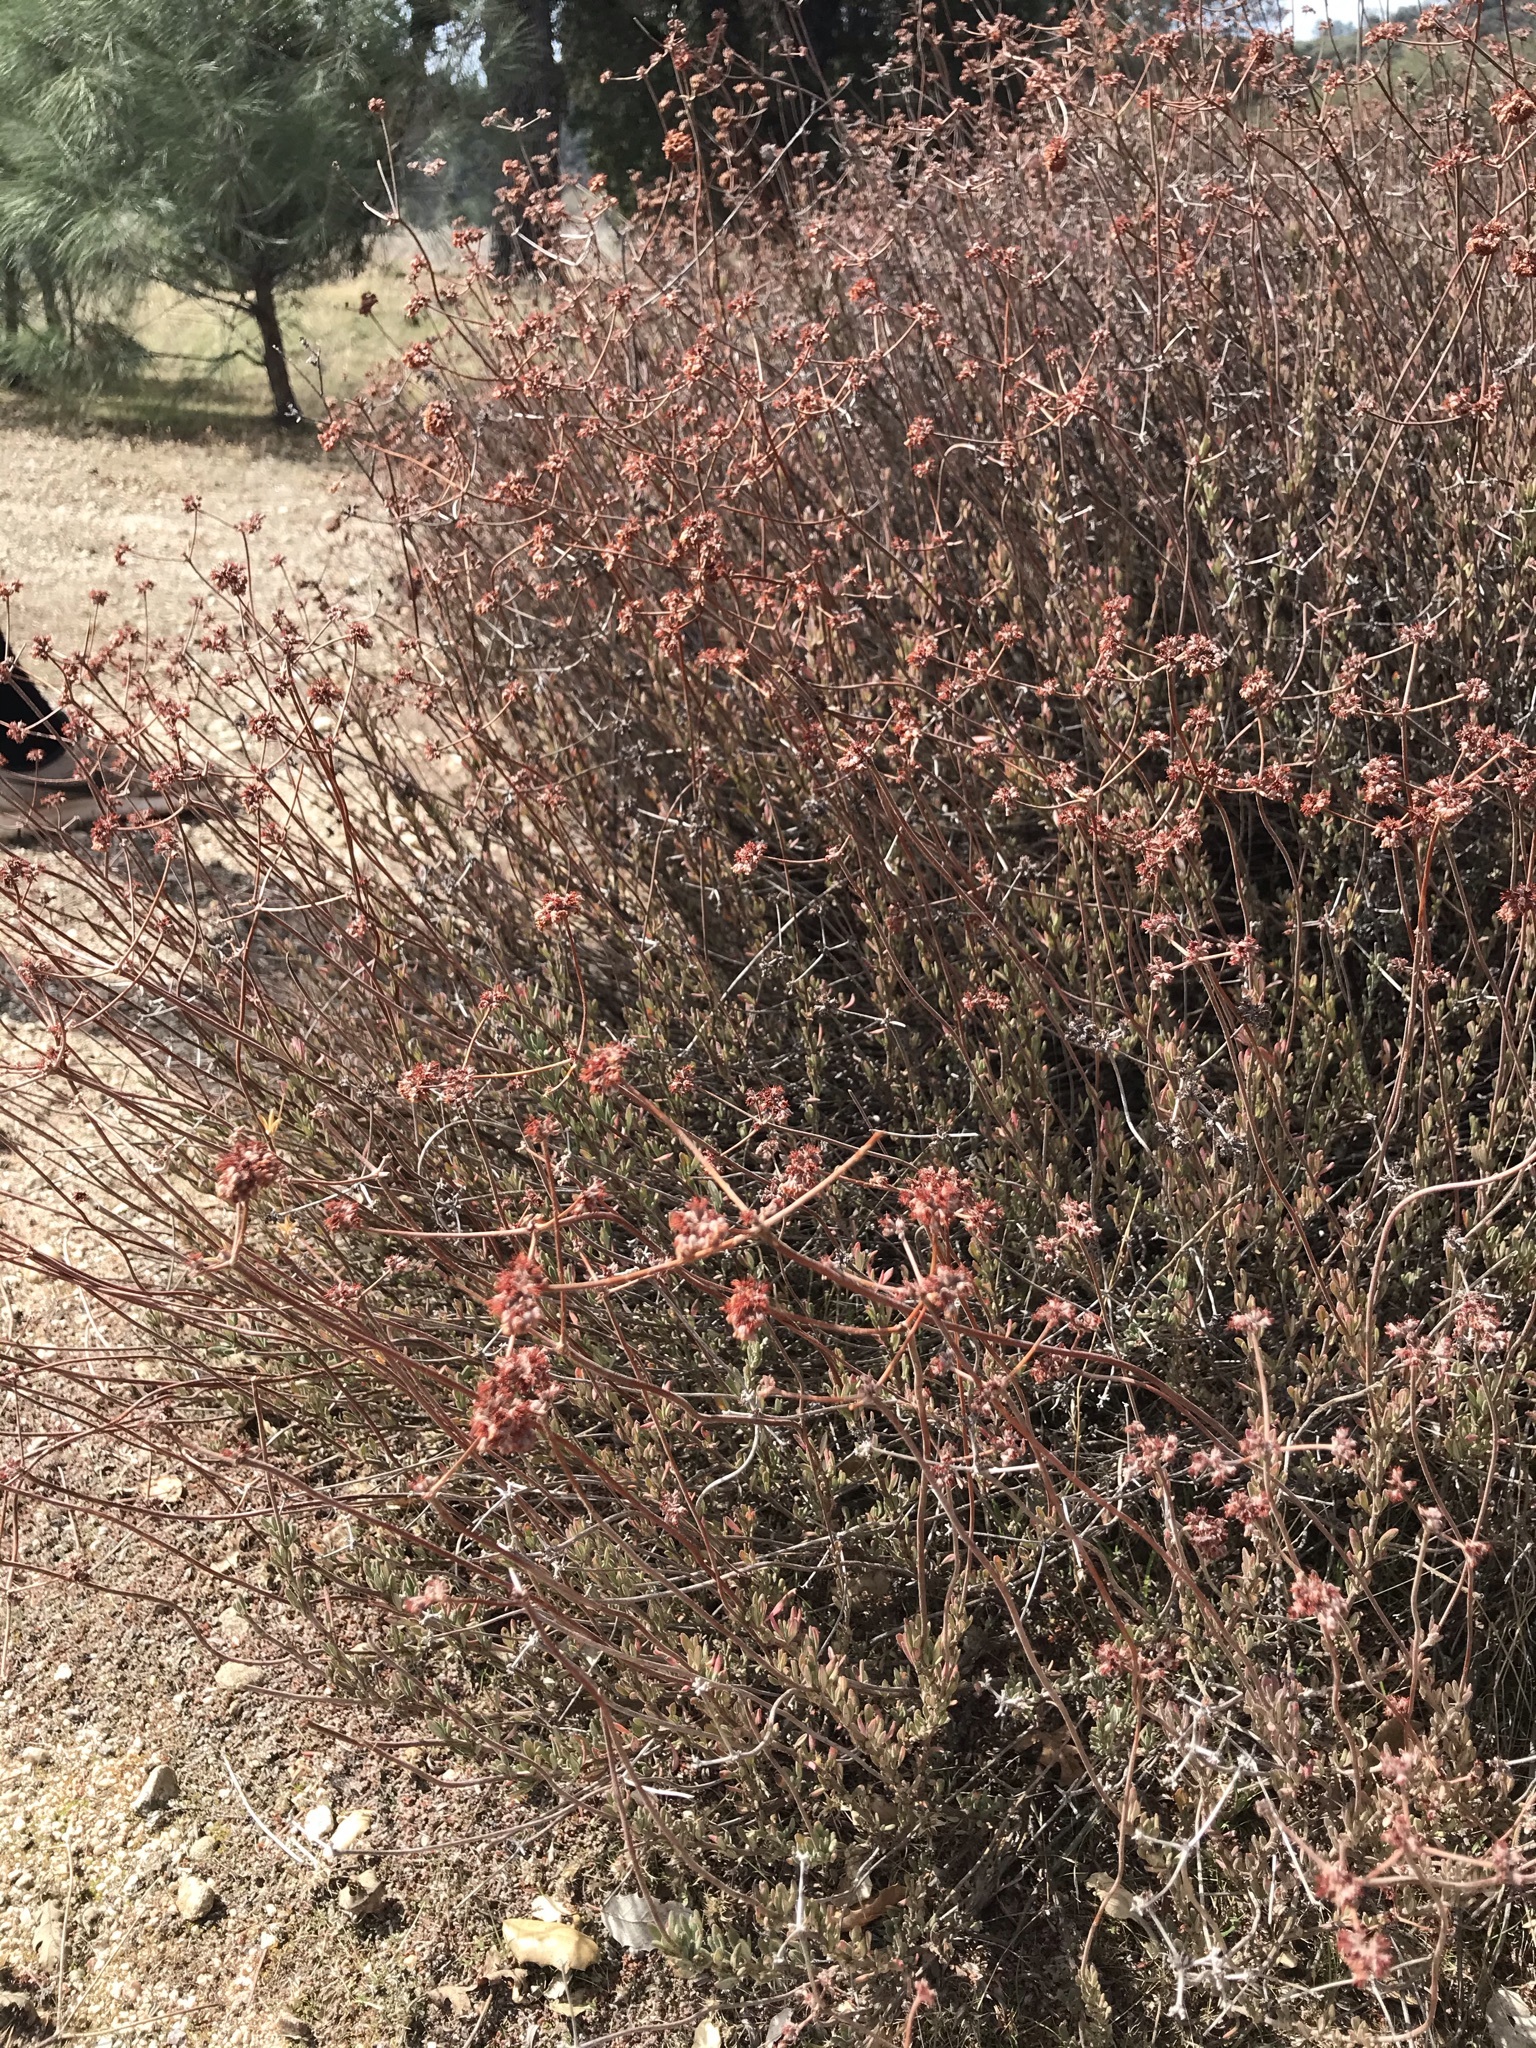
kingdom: Plantae
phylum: Tracheophyta
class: Magnoliopsida
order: Caryophyllales
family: Polygonaceae
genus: Eriogonum
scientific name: Eriogonum fasciculatum
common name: California wild buckwheat
